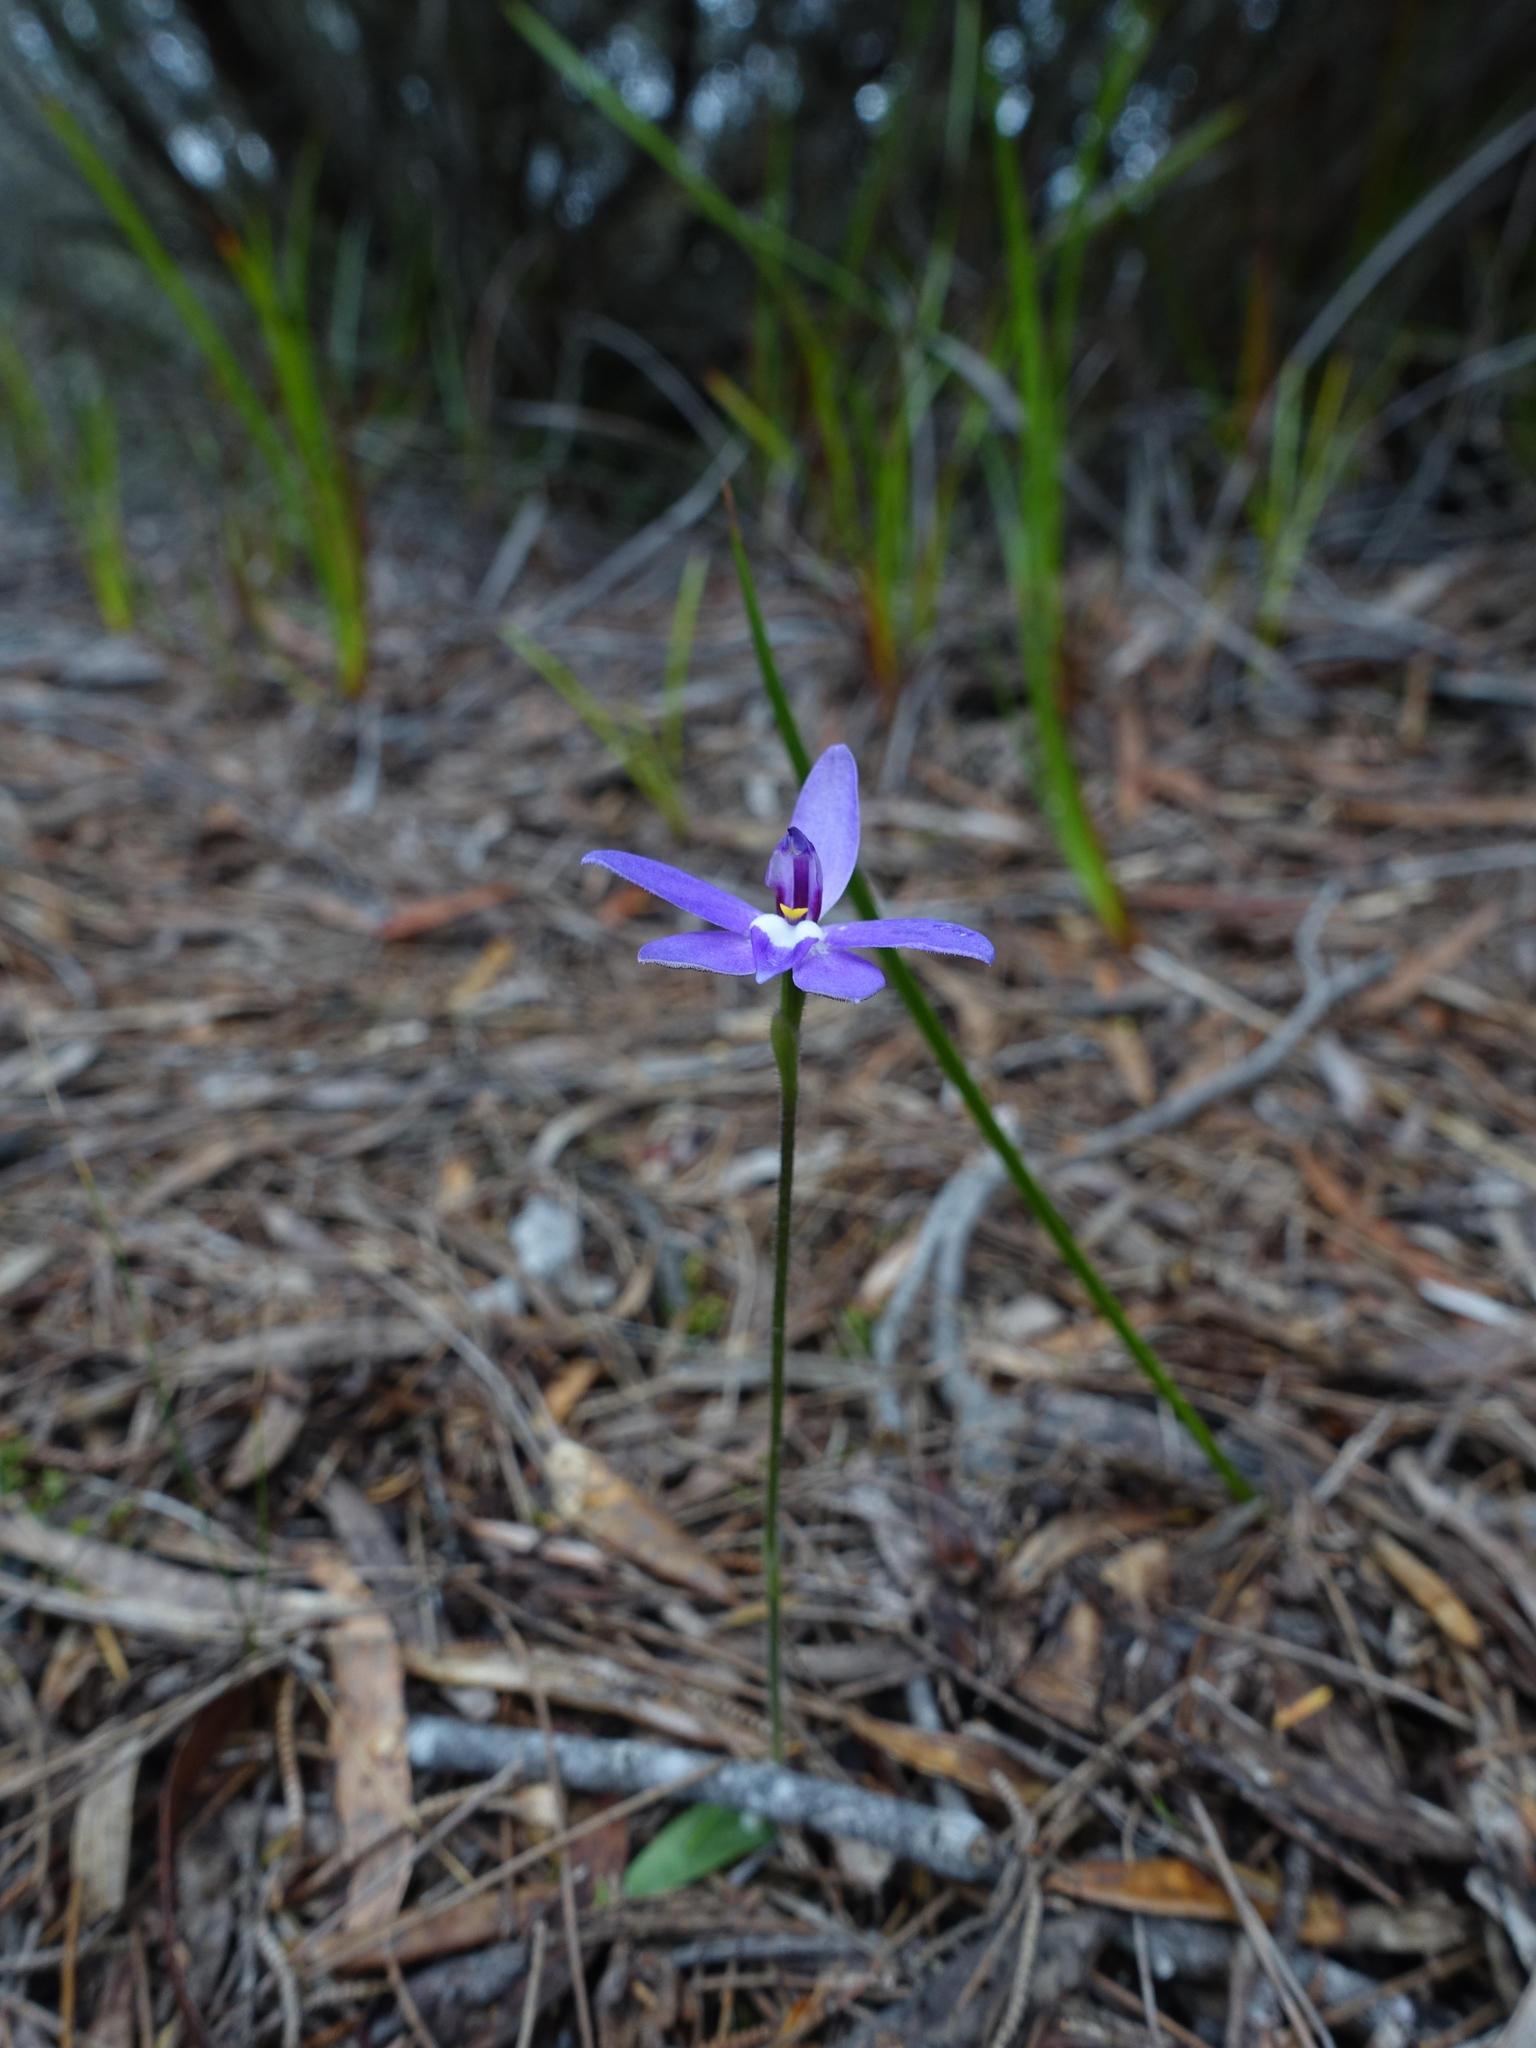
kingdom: Plantae
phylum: Tracheophyta
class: Liliopsida
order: Asparagales
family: Orchidaceae
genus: Caladenia
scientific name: Caladenia major
